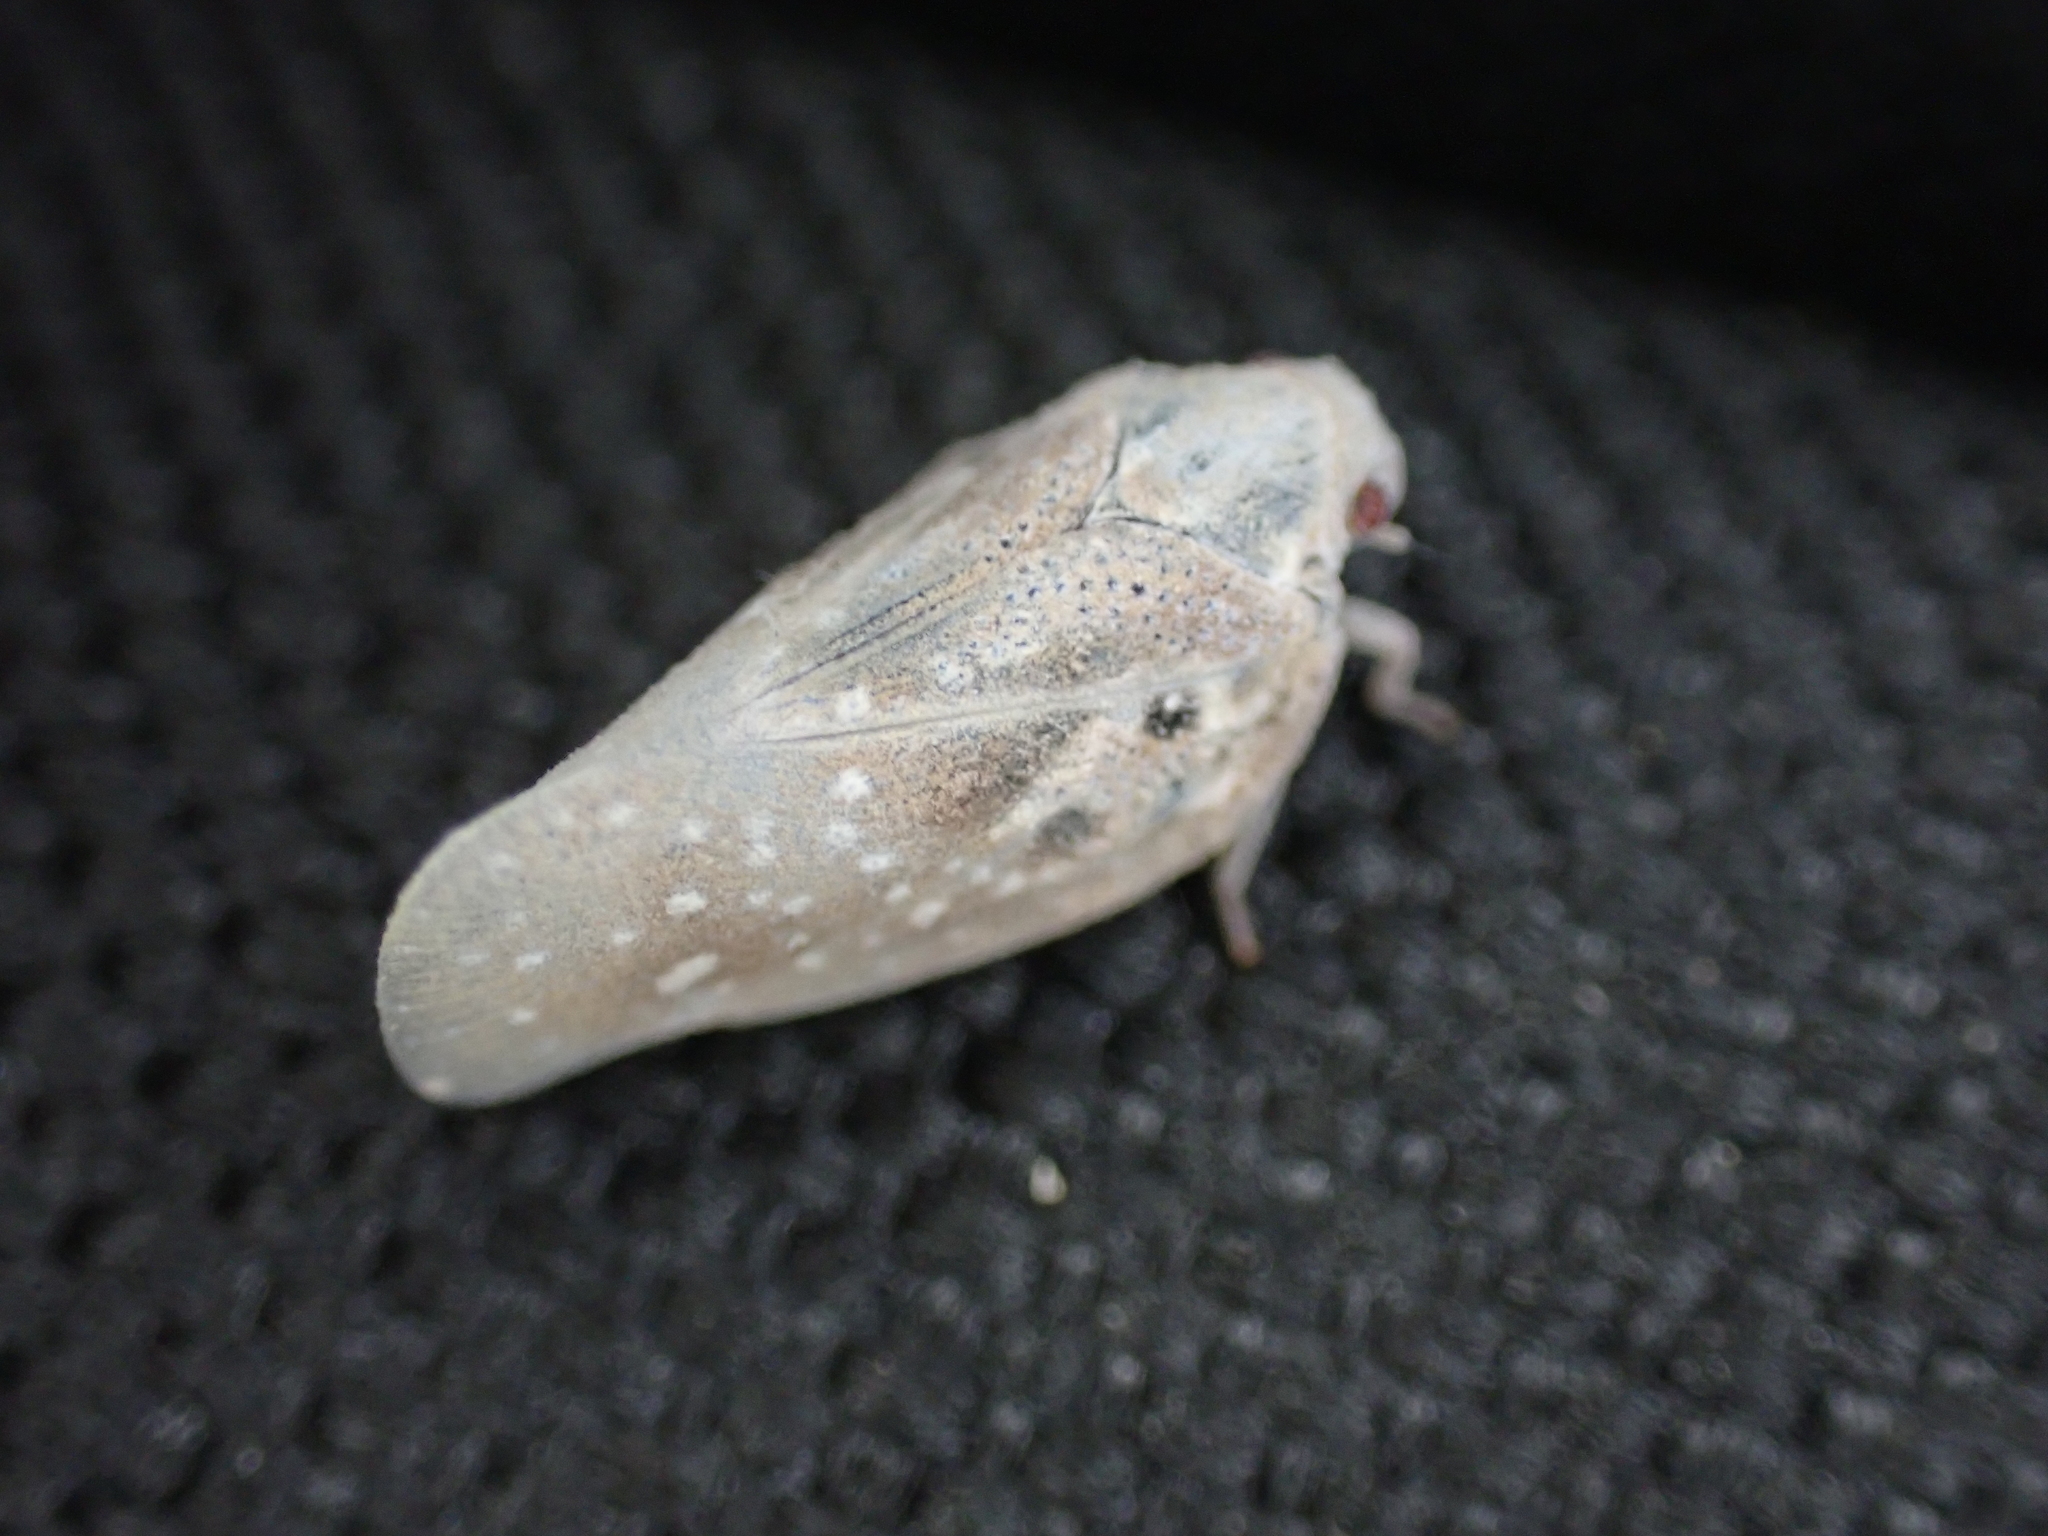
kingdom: Animalia
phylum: Arthropoda
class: Insecta
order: Hemiptera
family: Flatidae
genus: Metcalfa
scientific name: Metcalfa pruinosa
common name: Citrus flatid planthopper
